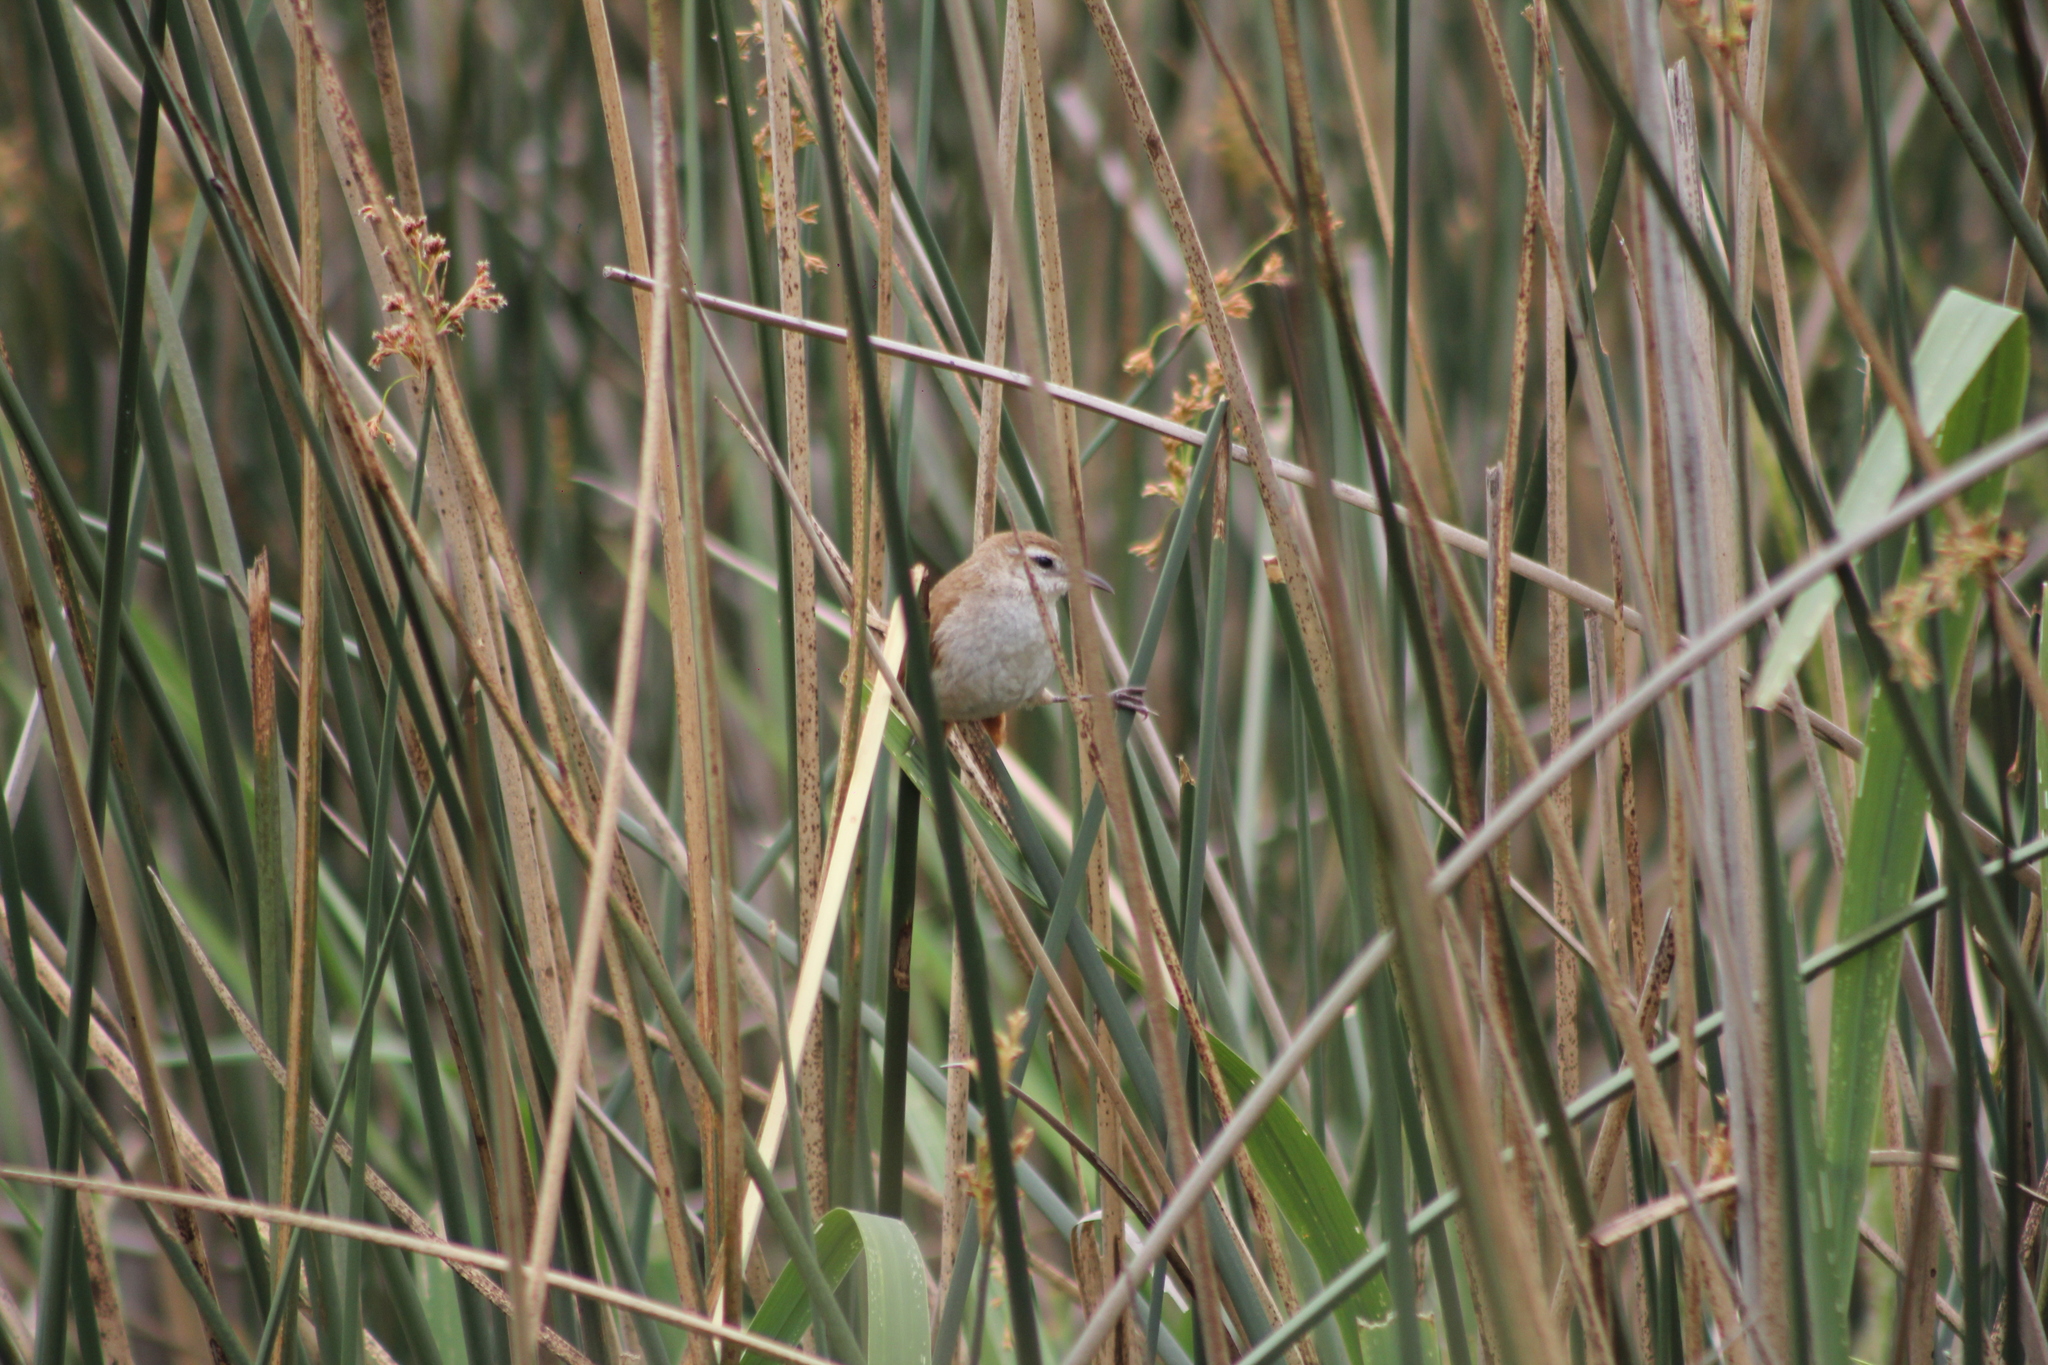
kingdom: Animalia
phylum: Chordata
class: Aves
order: Passeriformes
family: Furnariidae
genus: Limnornis
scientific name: Limnornis curvirostris
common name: Curve-billed reedhaunter
